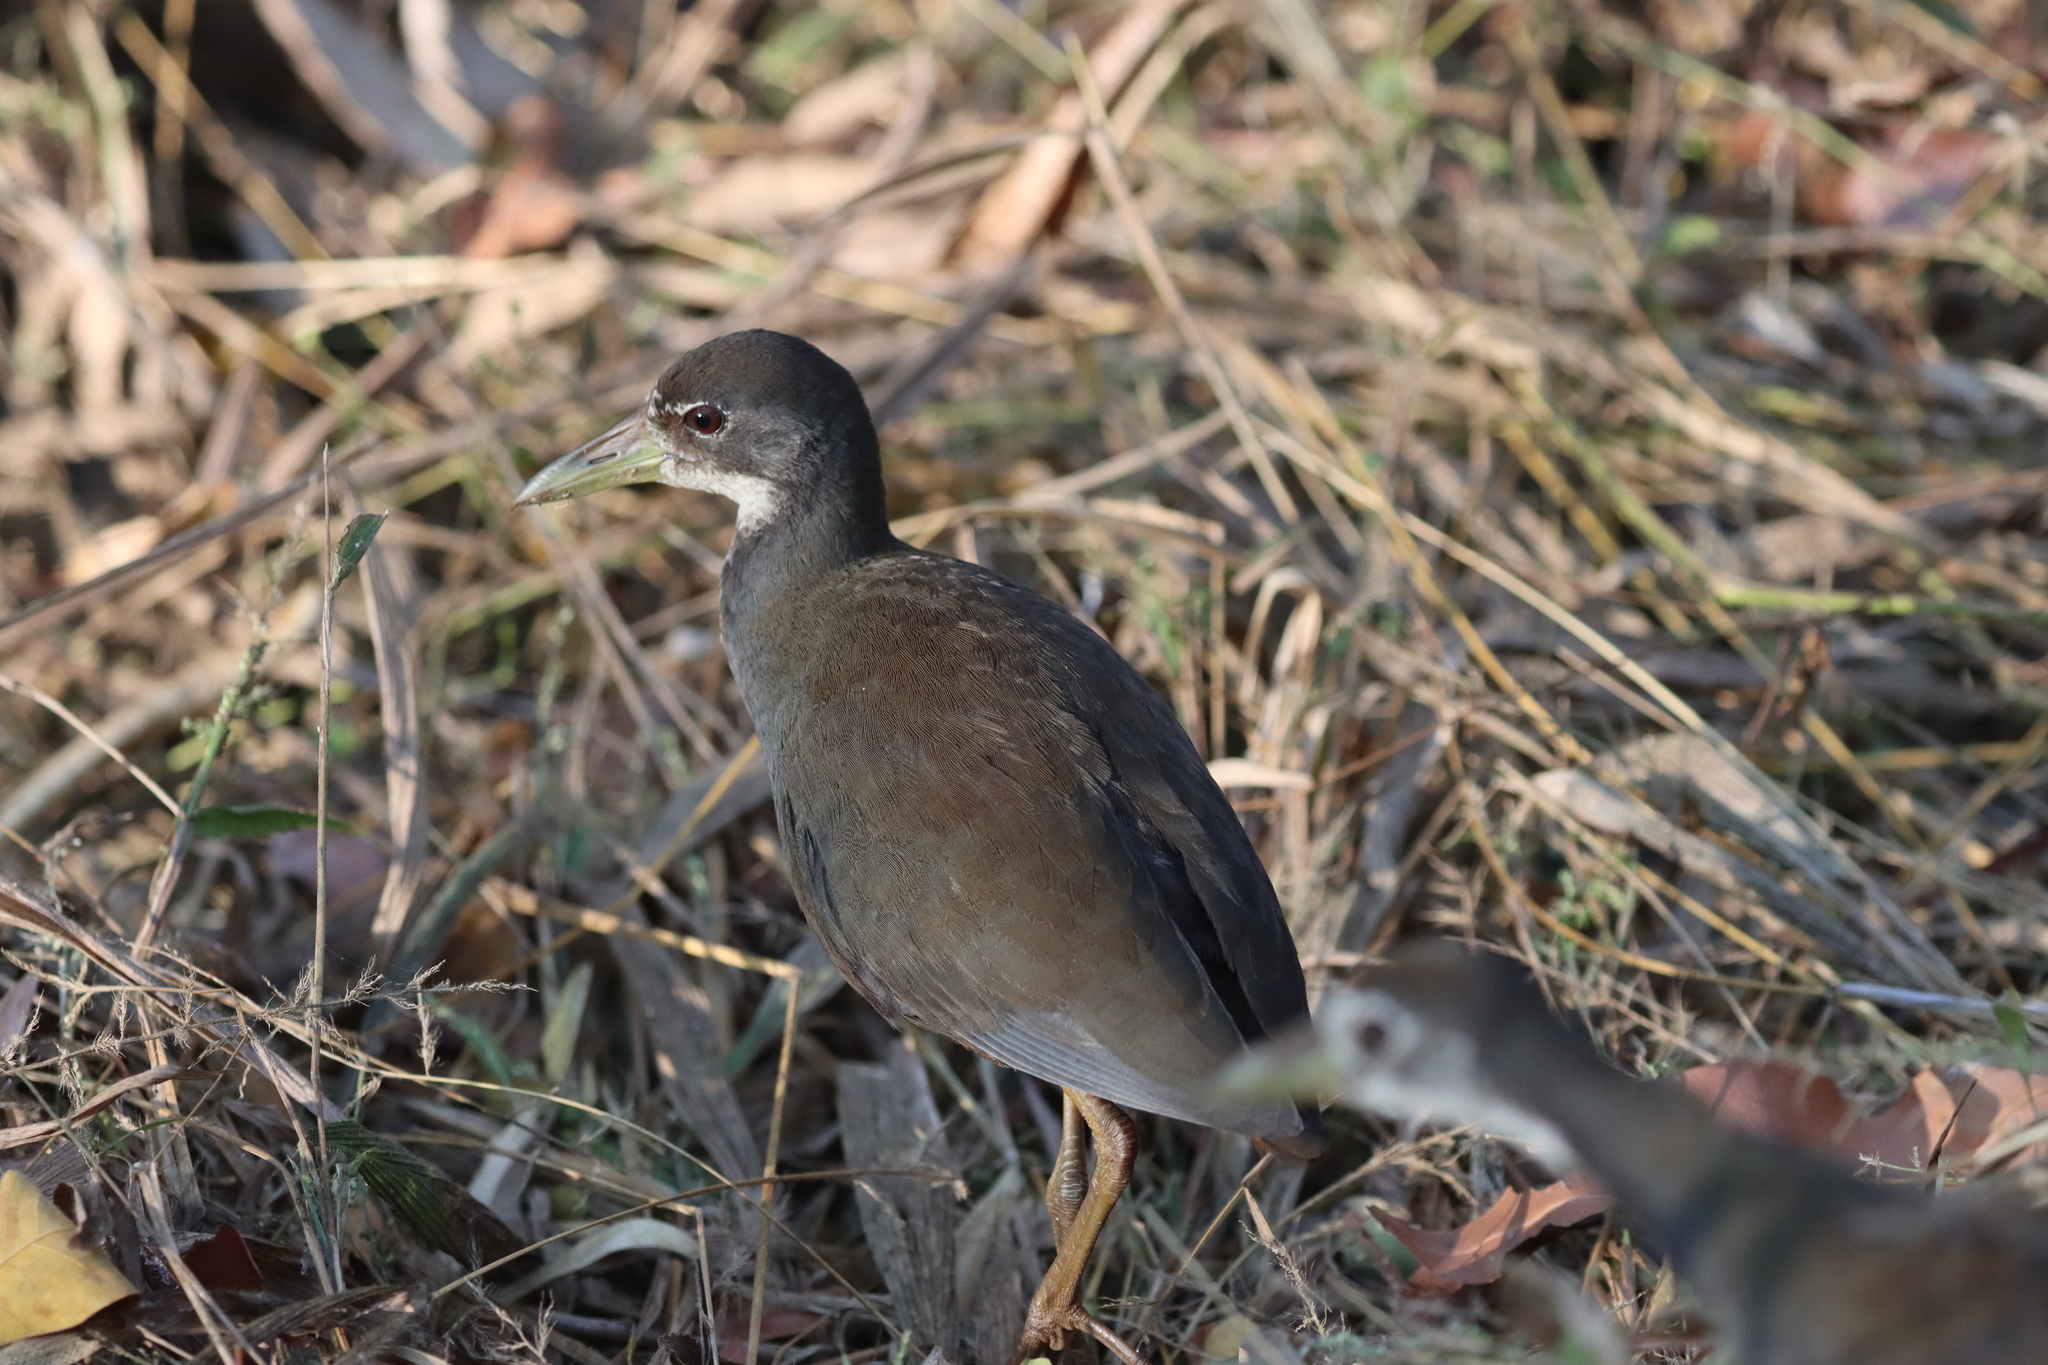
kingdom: Animalia
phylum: Chordata
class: Aves
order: Gruiformes
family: Rallidae
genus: Amaurornis
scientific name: Amaurornis phoenicurus
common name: White-breasted waterhen
